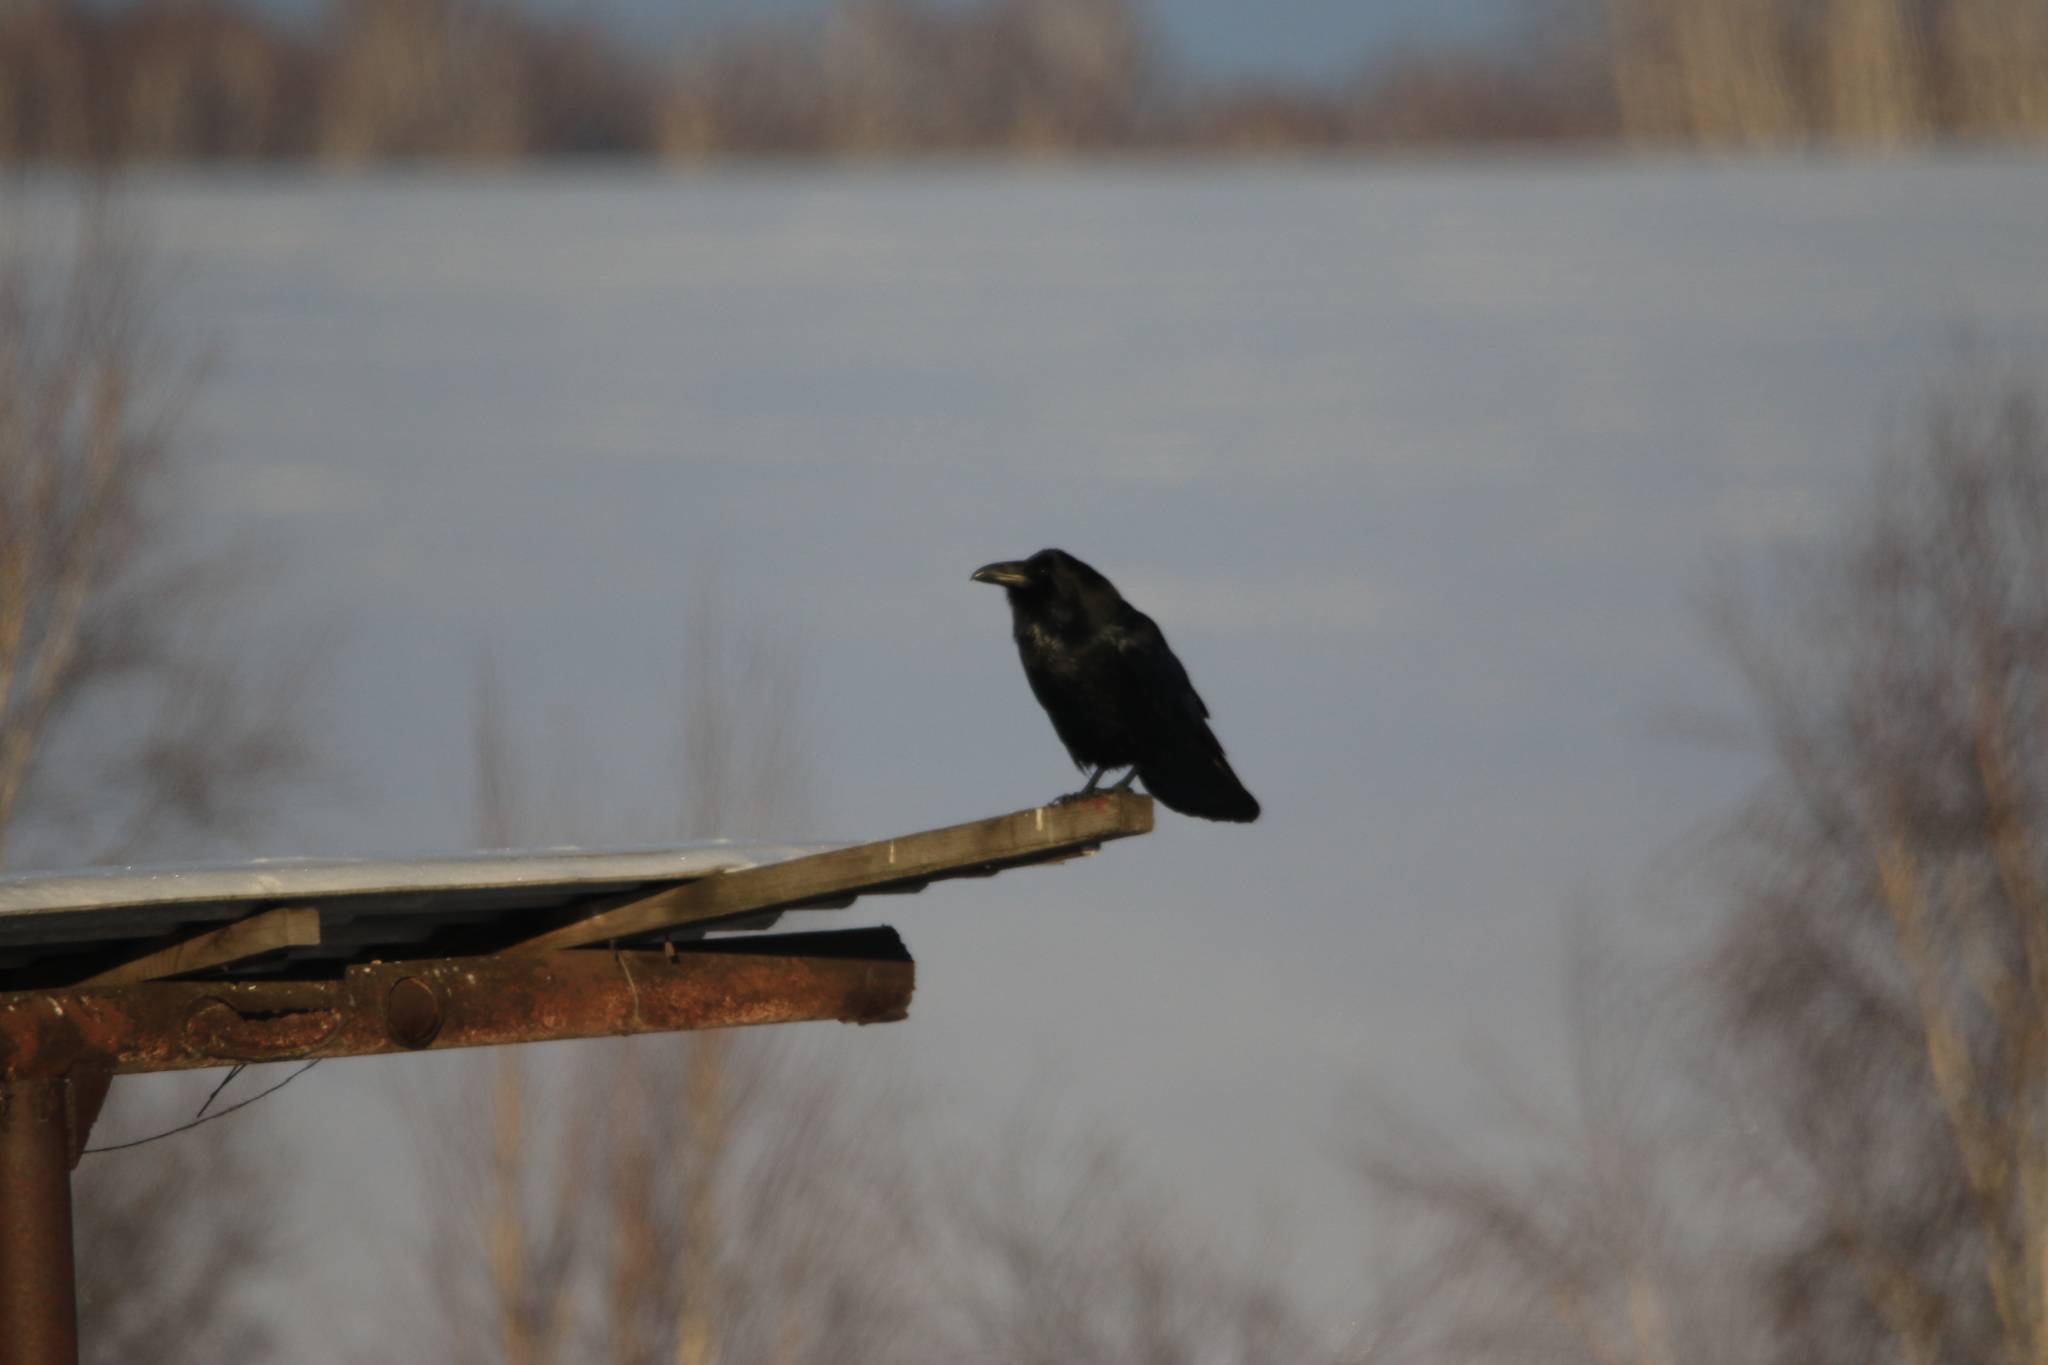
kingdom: Animalia
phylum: Chordata
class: Aves
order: Passeriformes
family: Corvidae
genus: Corvus
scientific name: Corvus corax
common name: Common raven
